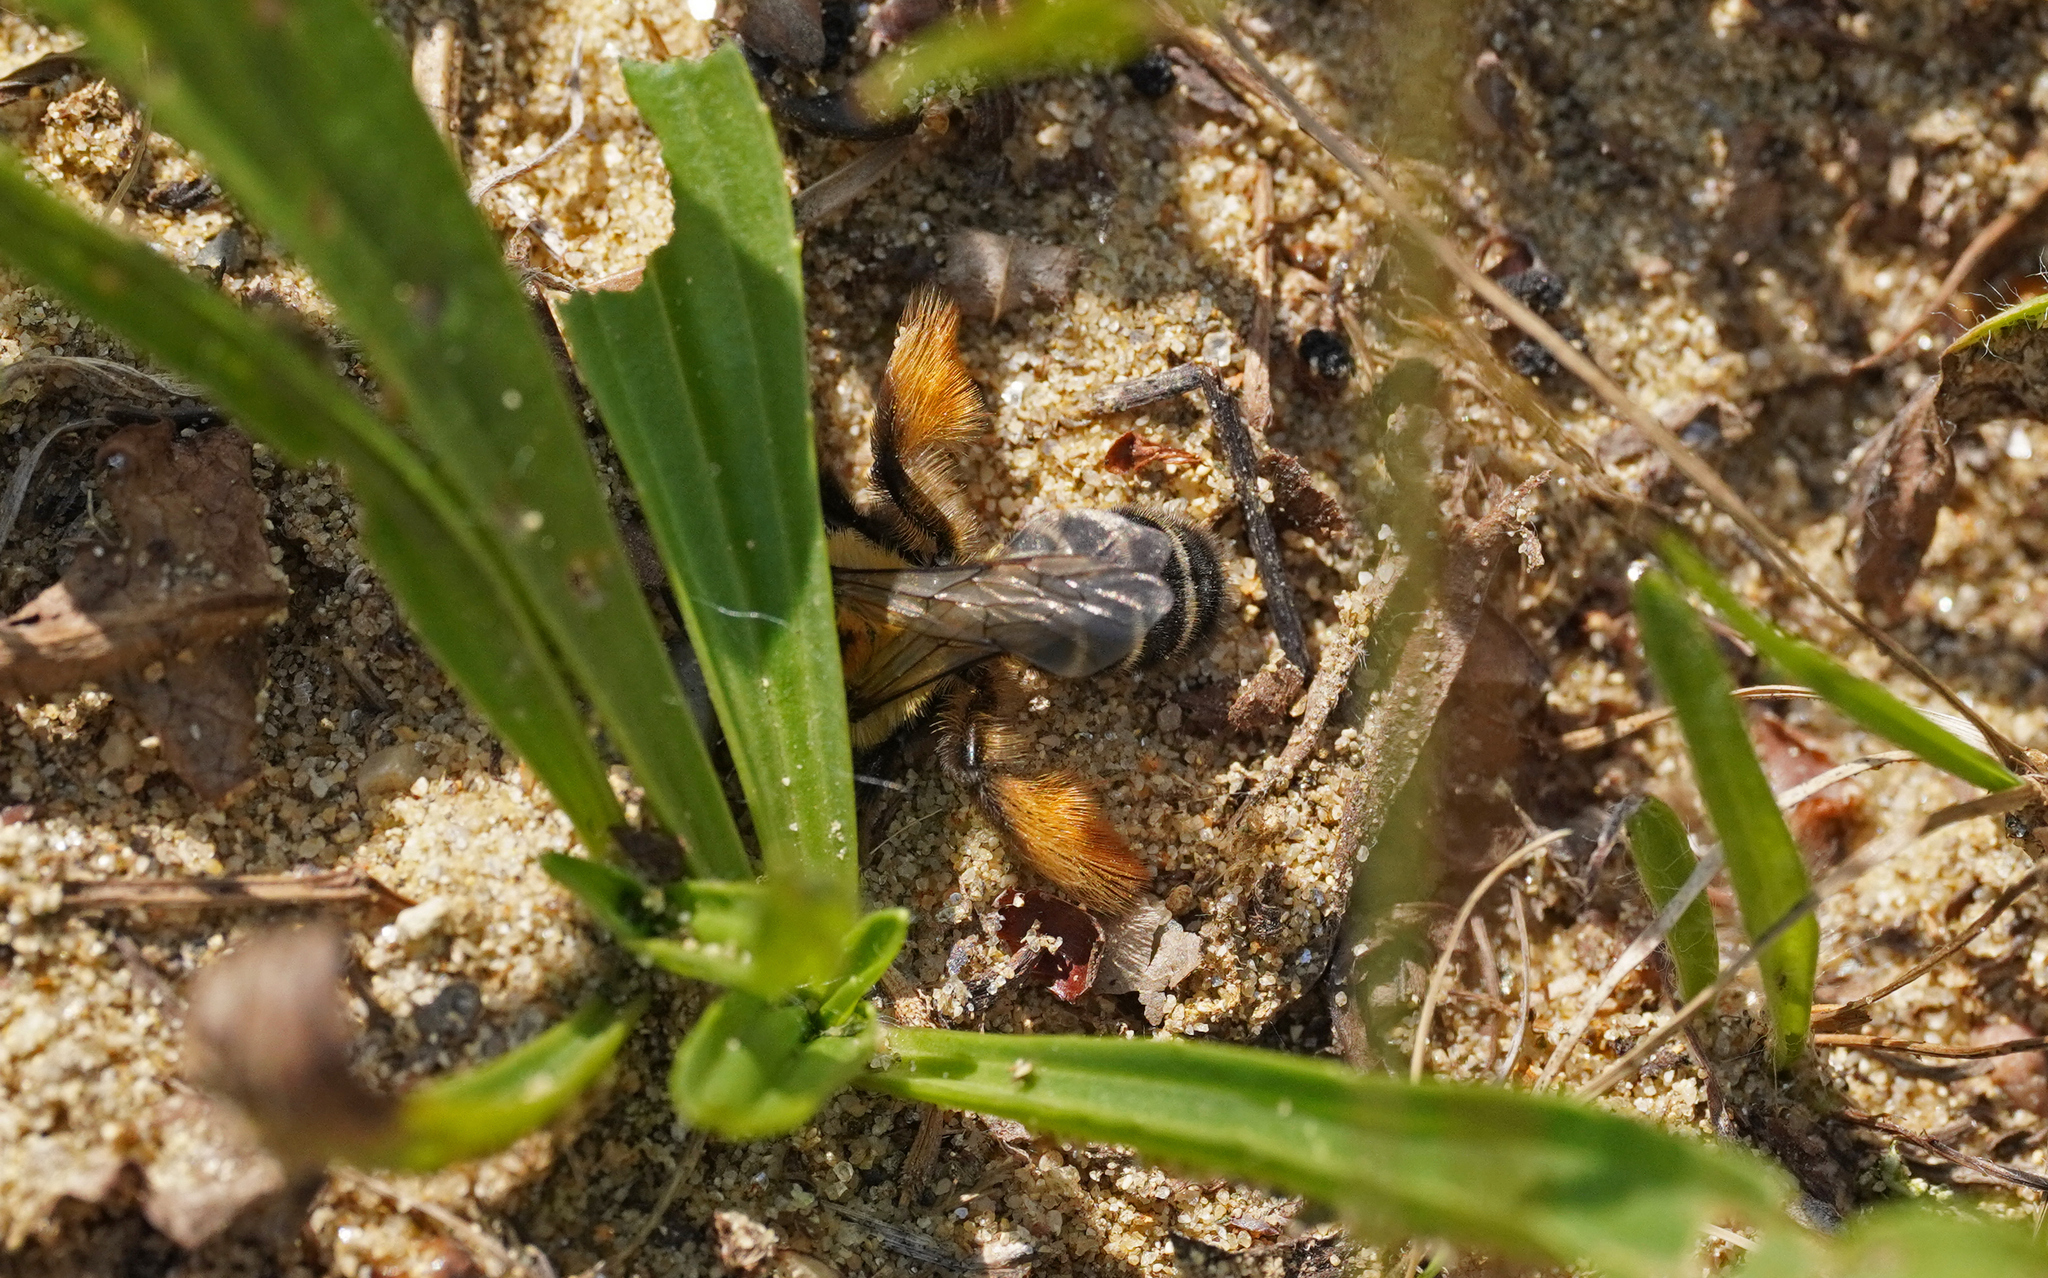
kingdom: Animalia
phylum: Arthropoda
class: Insecta
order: Hymenoptera
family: Melittidae
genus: Dasypoda
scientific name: Dasypoda hirtipes
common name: Pantaloon bee
